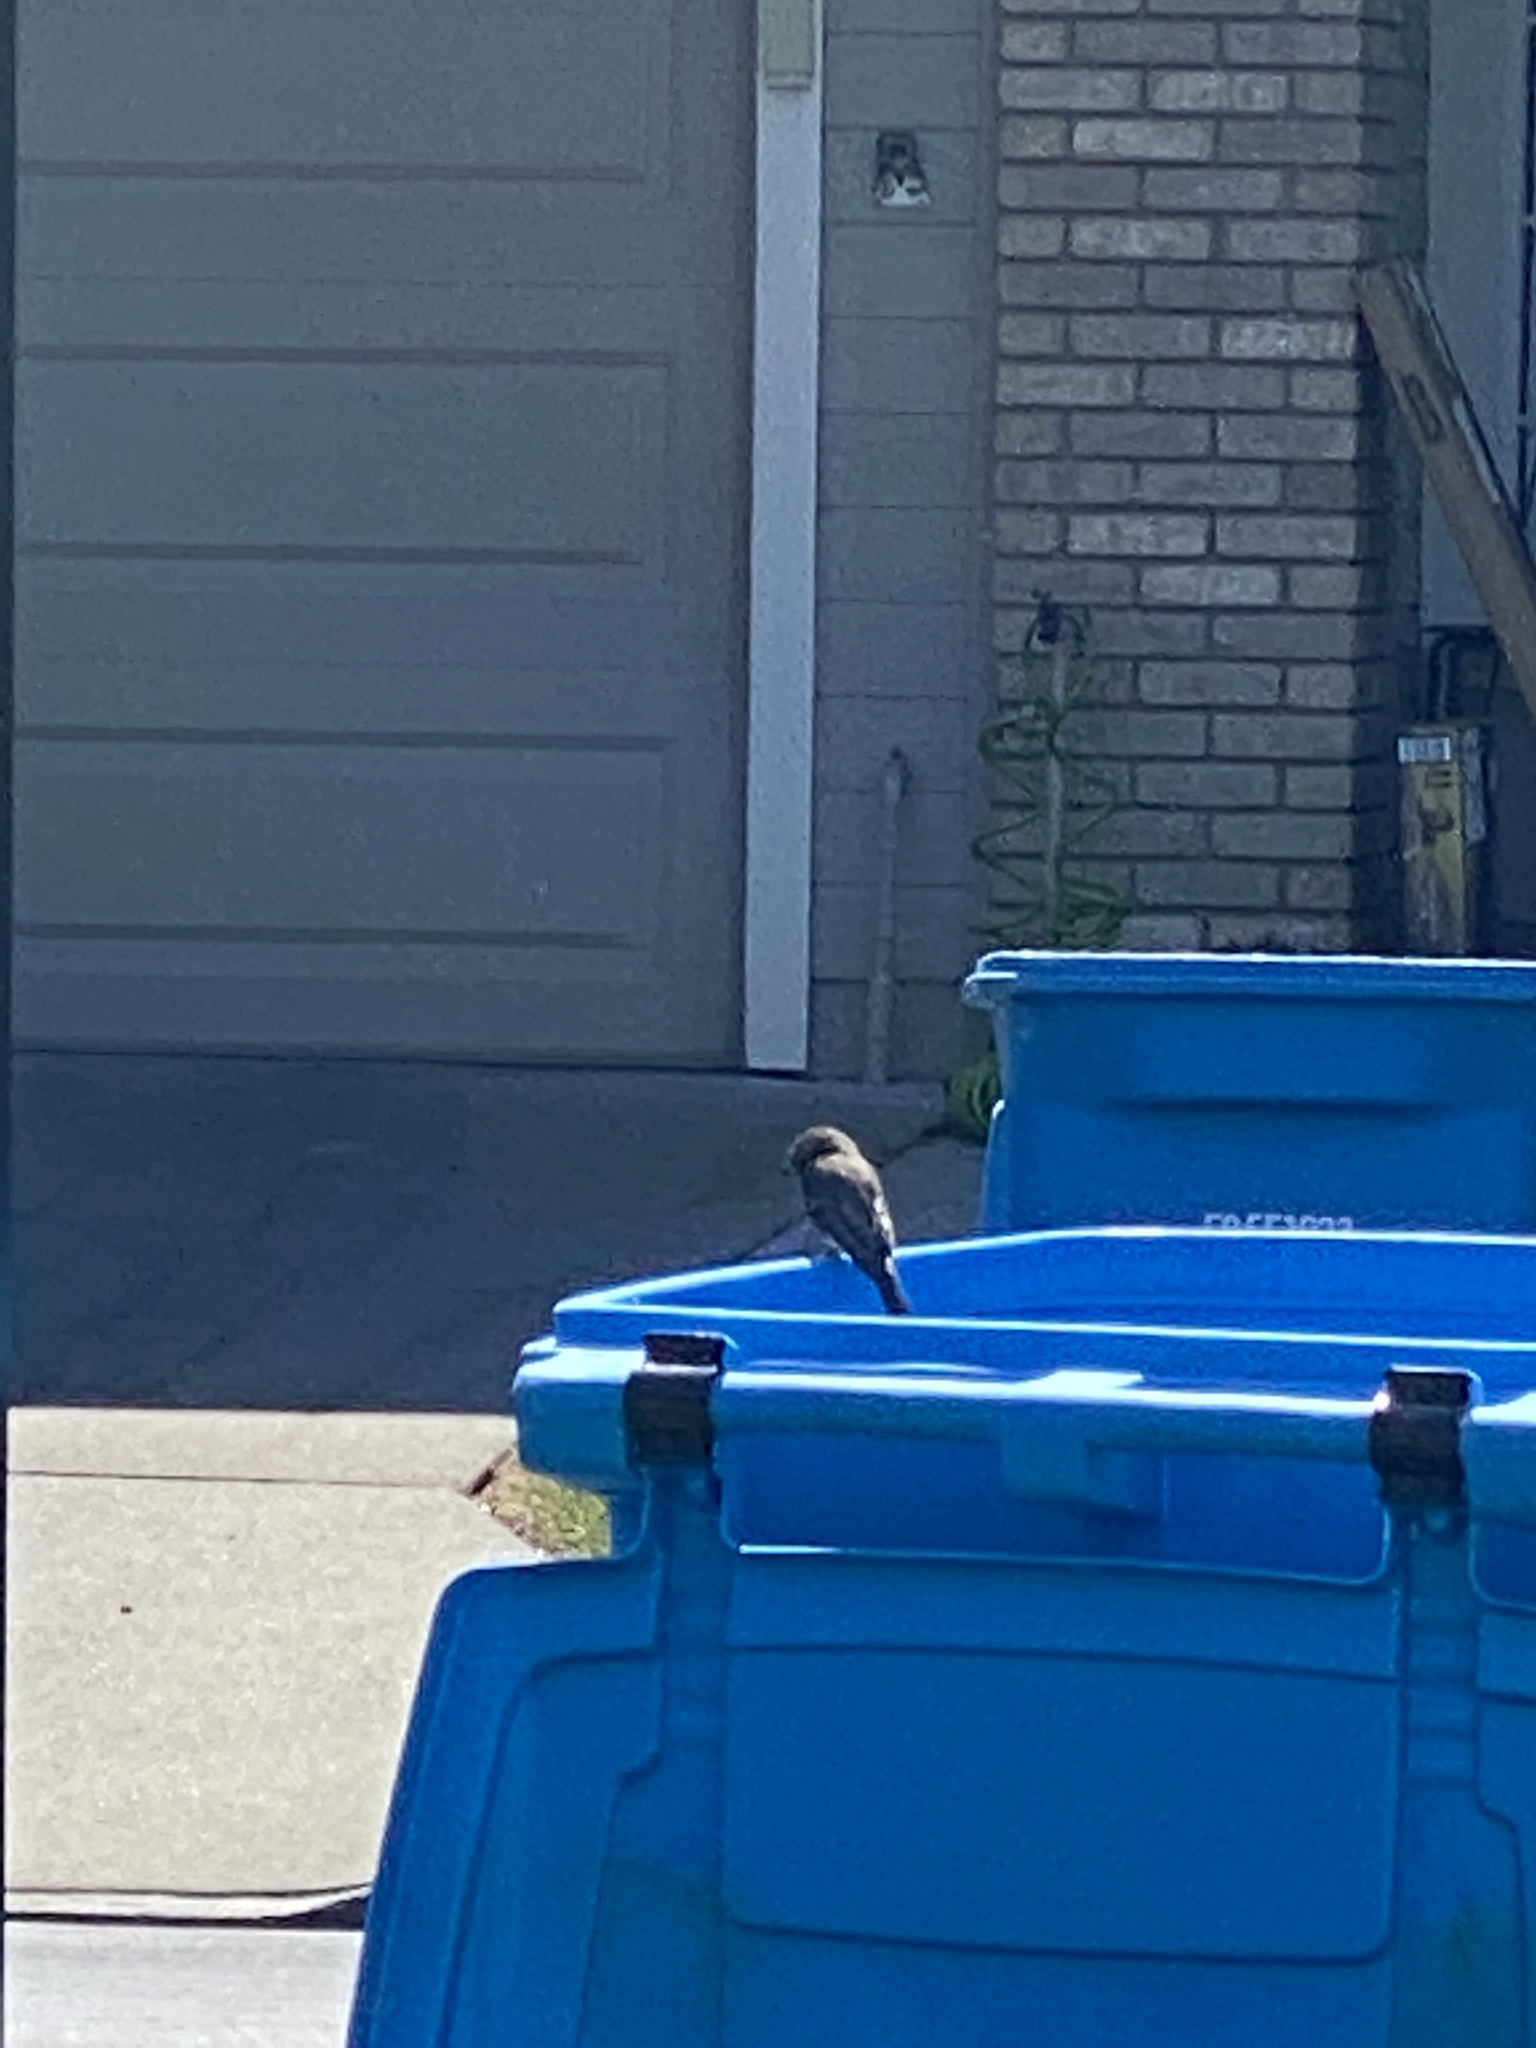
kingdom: Animalia
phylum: Chordata
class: Aves
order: Passeriformes
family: Tyrannidae
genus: Sayornis
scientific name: Sayornis nigricans
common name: Black phoebe
